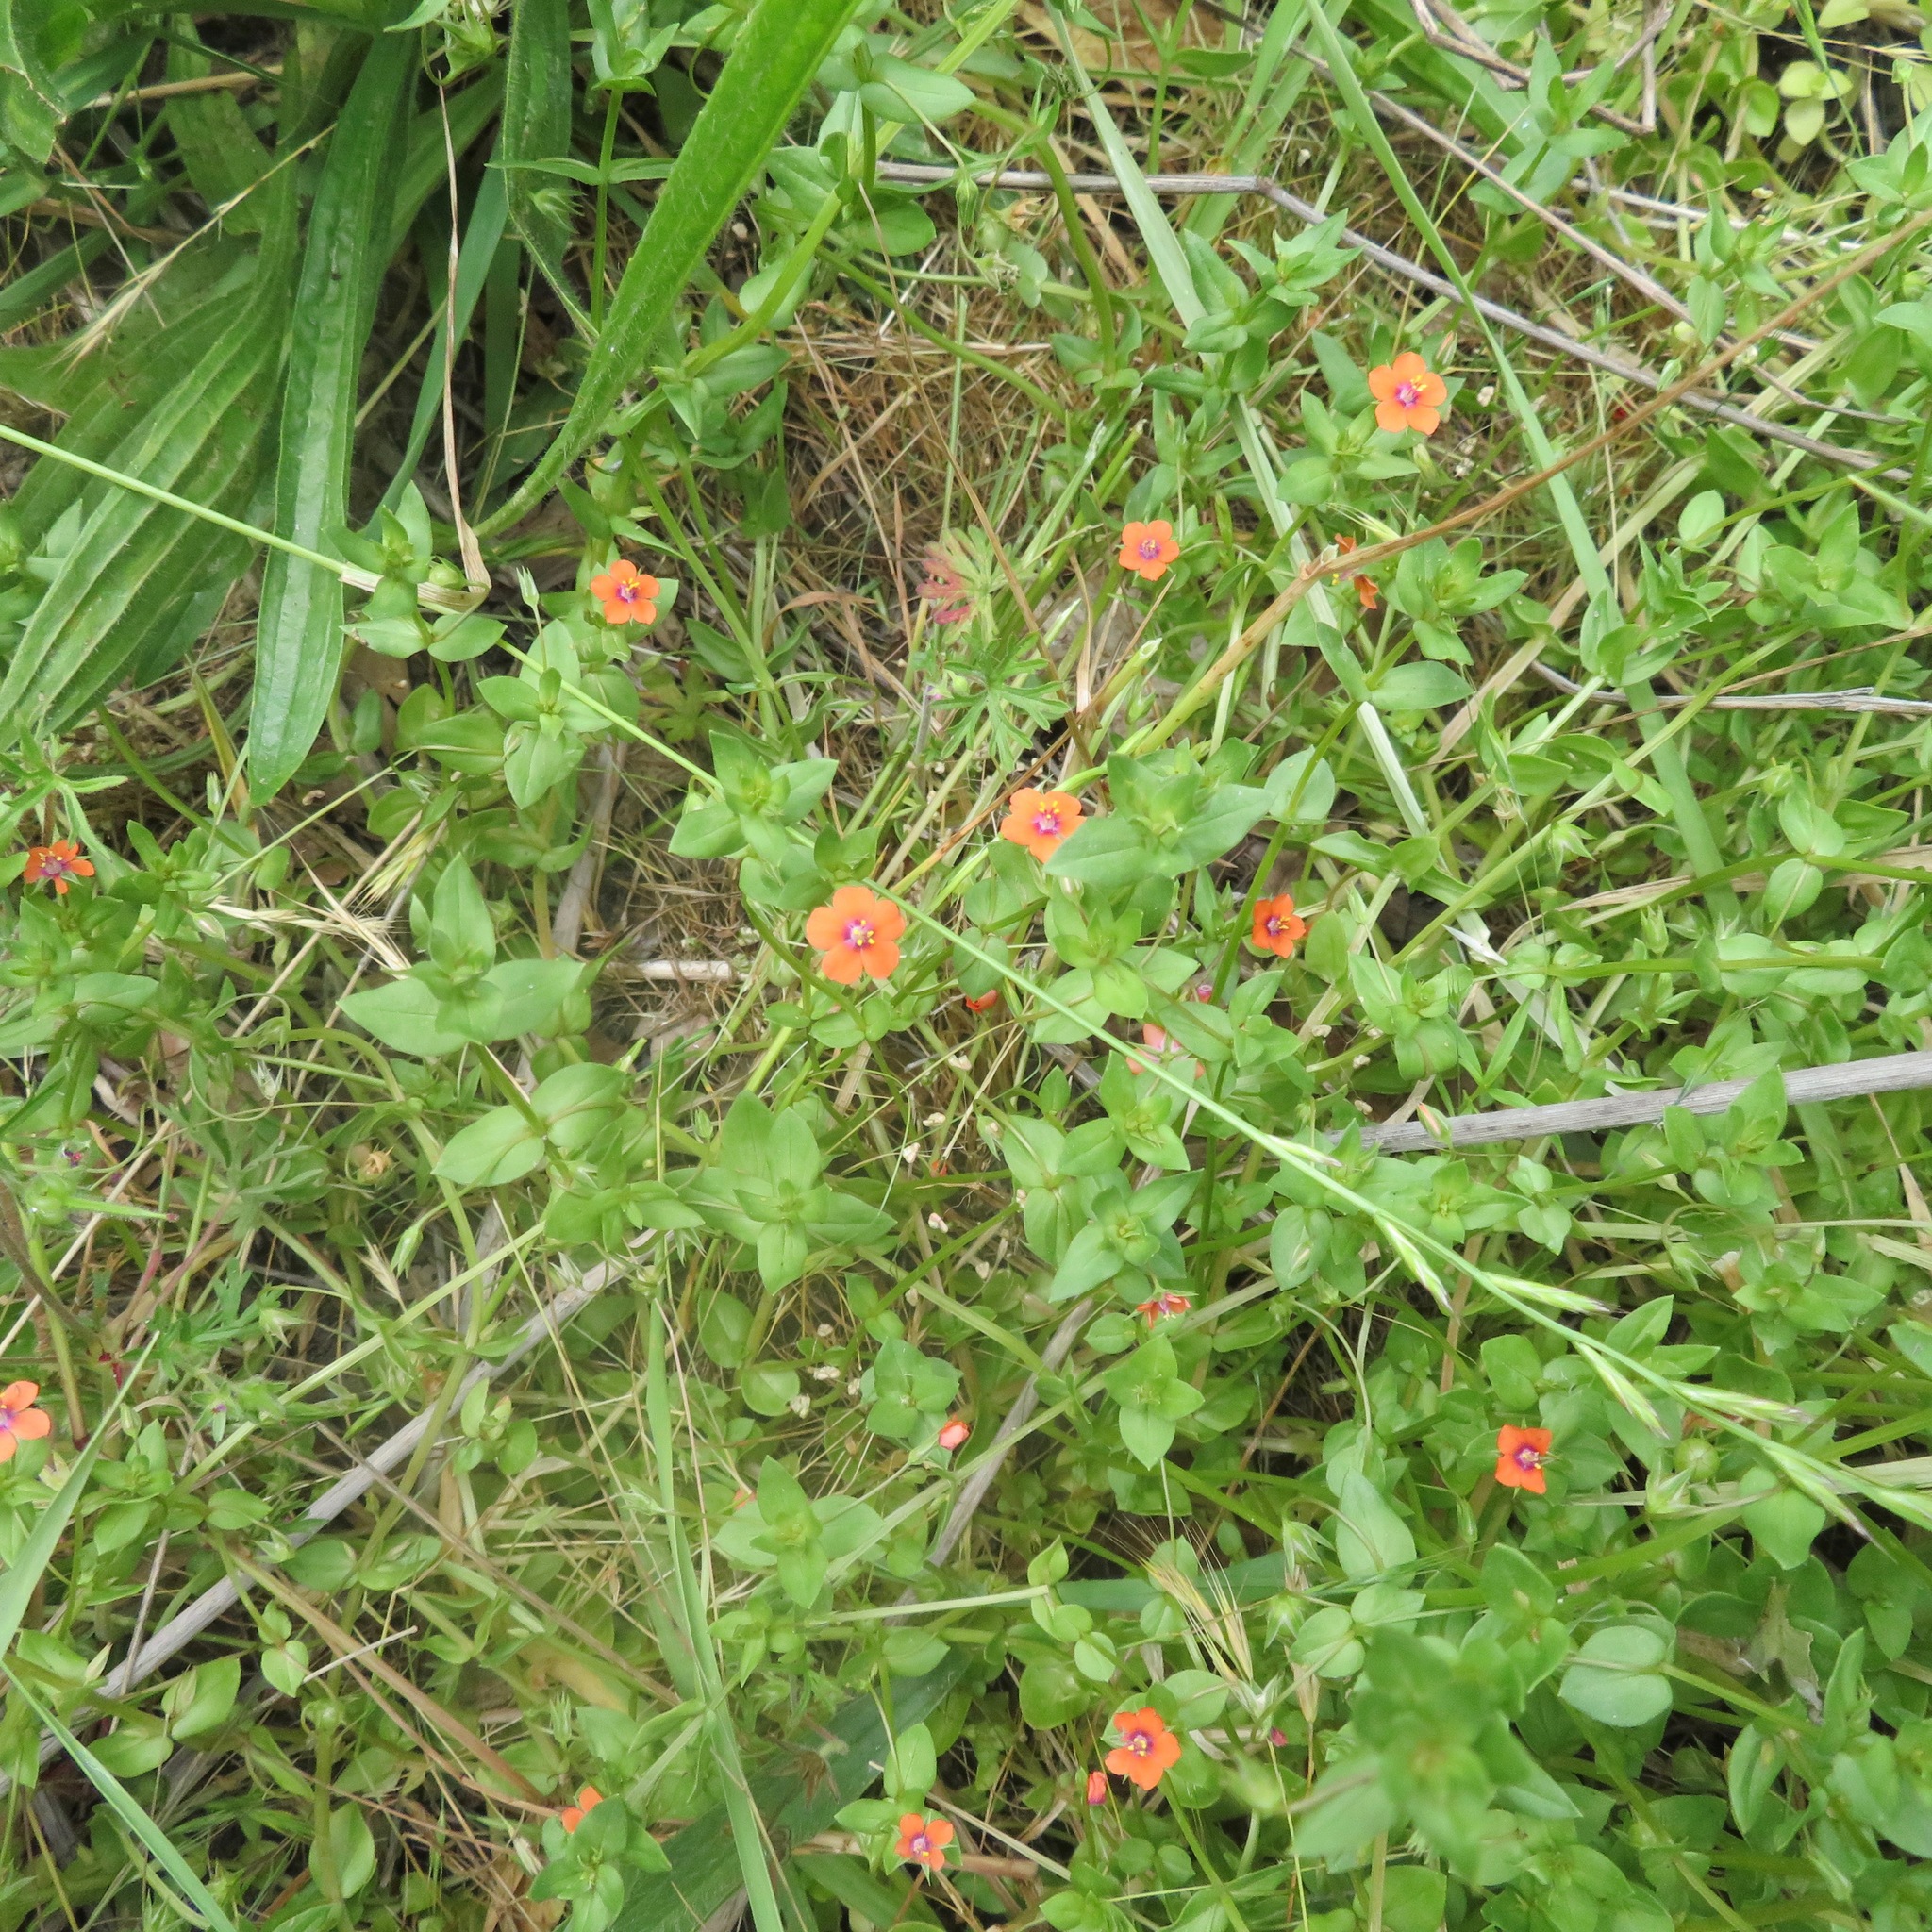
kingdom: Plantae
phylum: Tracheophyta
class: Magnoliopsida
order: Ericales
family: Primulaceae
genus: Lysimachia
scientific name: Lysimachia arvensis
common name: Scarlet pimpernel
